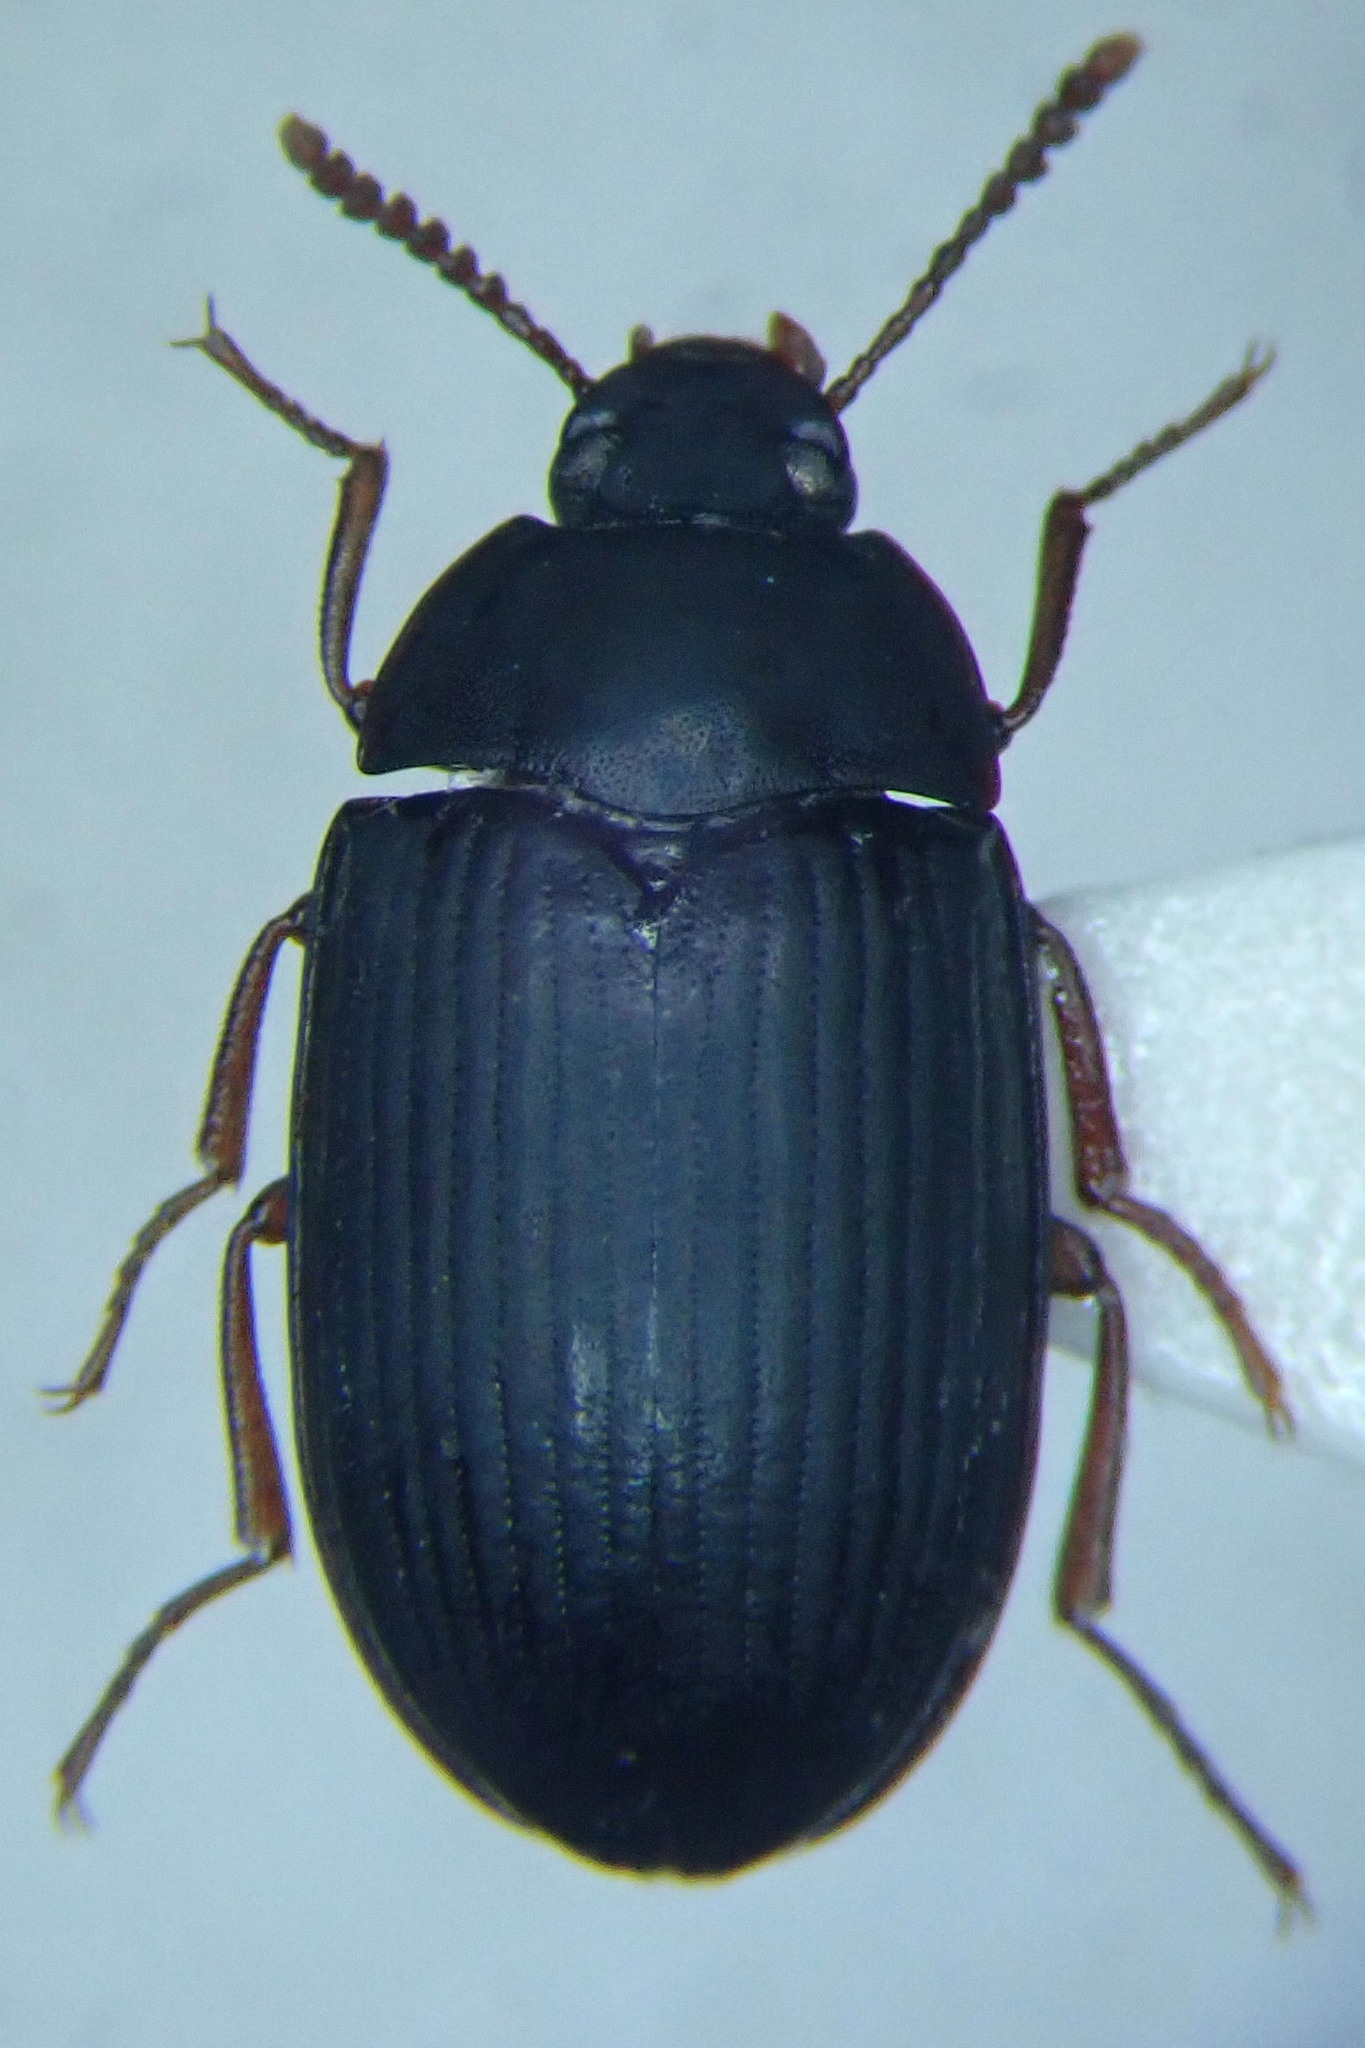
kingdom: Animalia
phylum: Arthropoda
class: Insecta
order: Coleoptera
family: Tenebrionidae
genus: Platydema
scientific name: Platydema europaea
